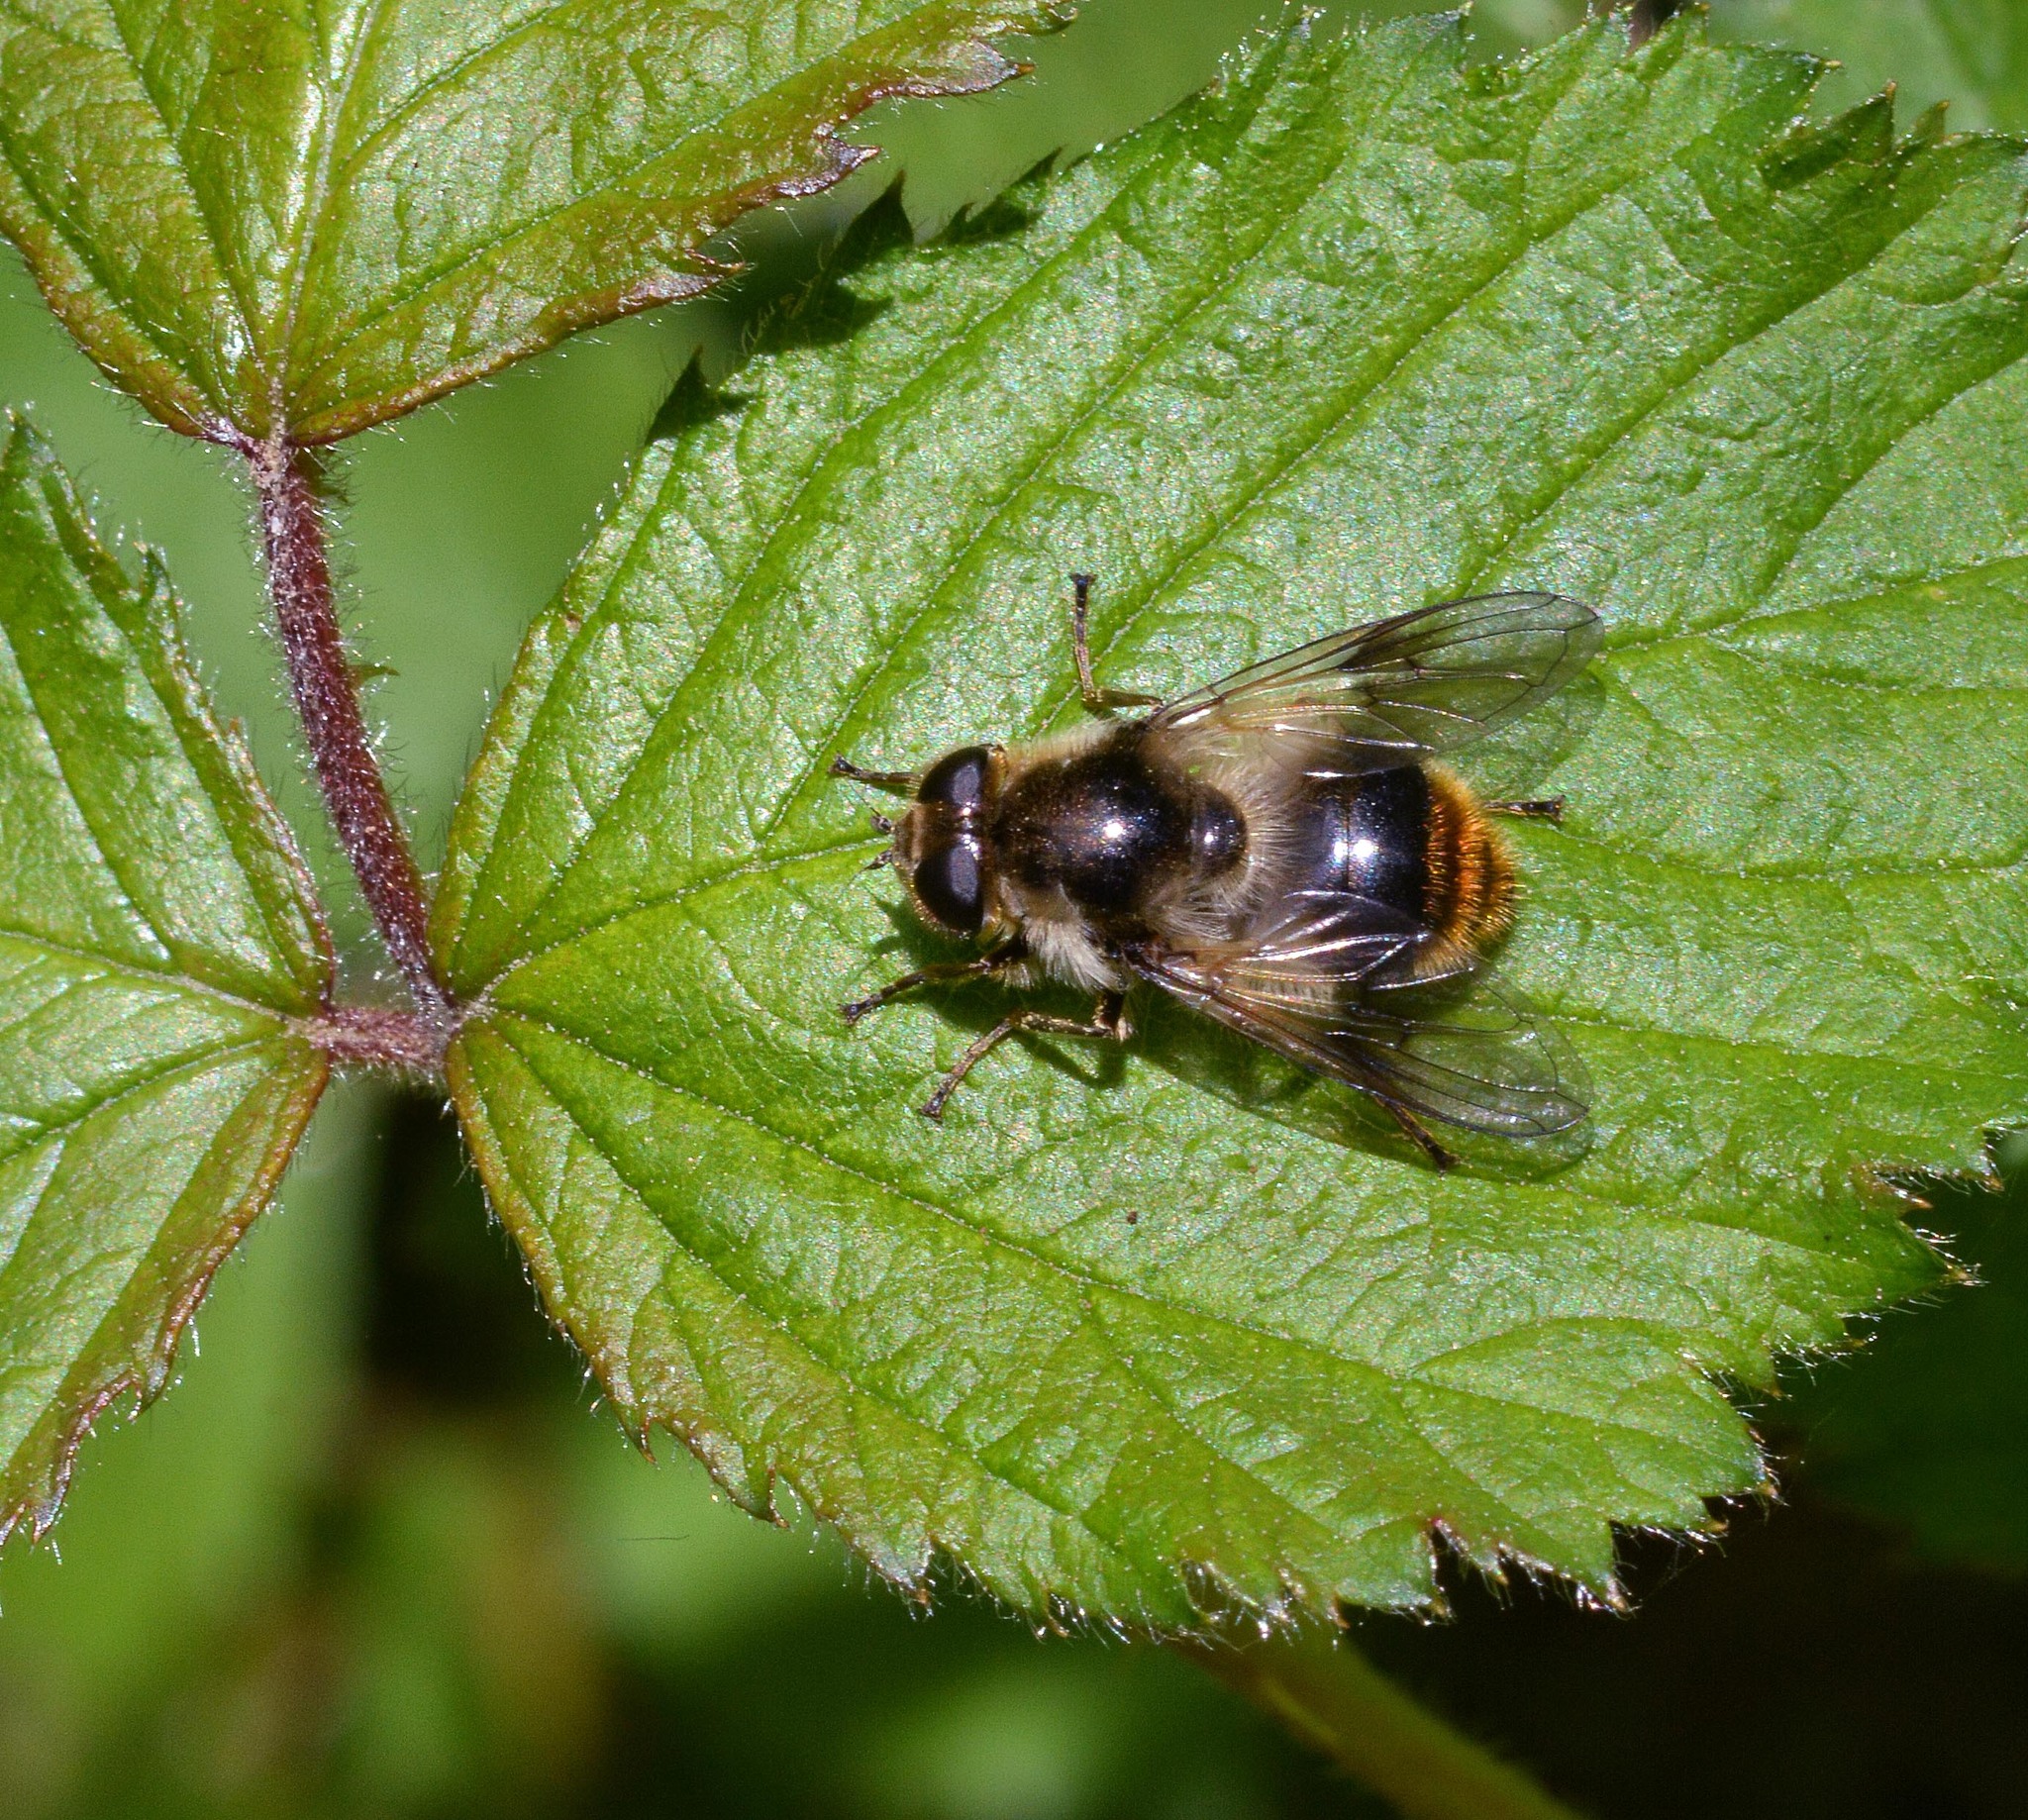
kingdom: Animalia
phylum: Arthropoda
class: Insecta
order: Diptera
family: Syrphidae
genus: Cheilosia
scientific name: Cheilosia illustrata
